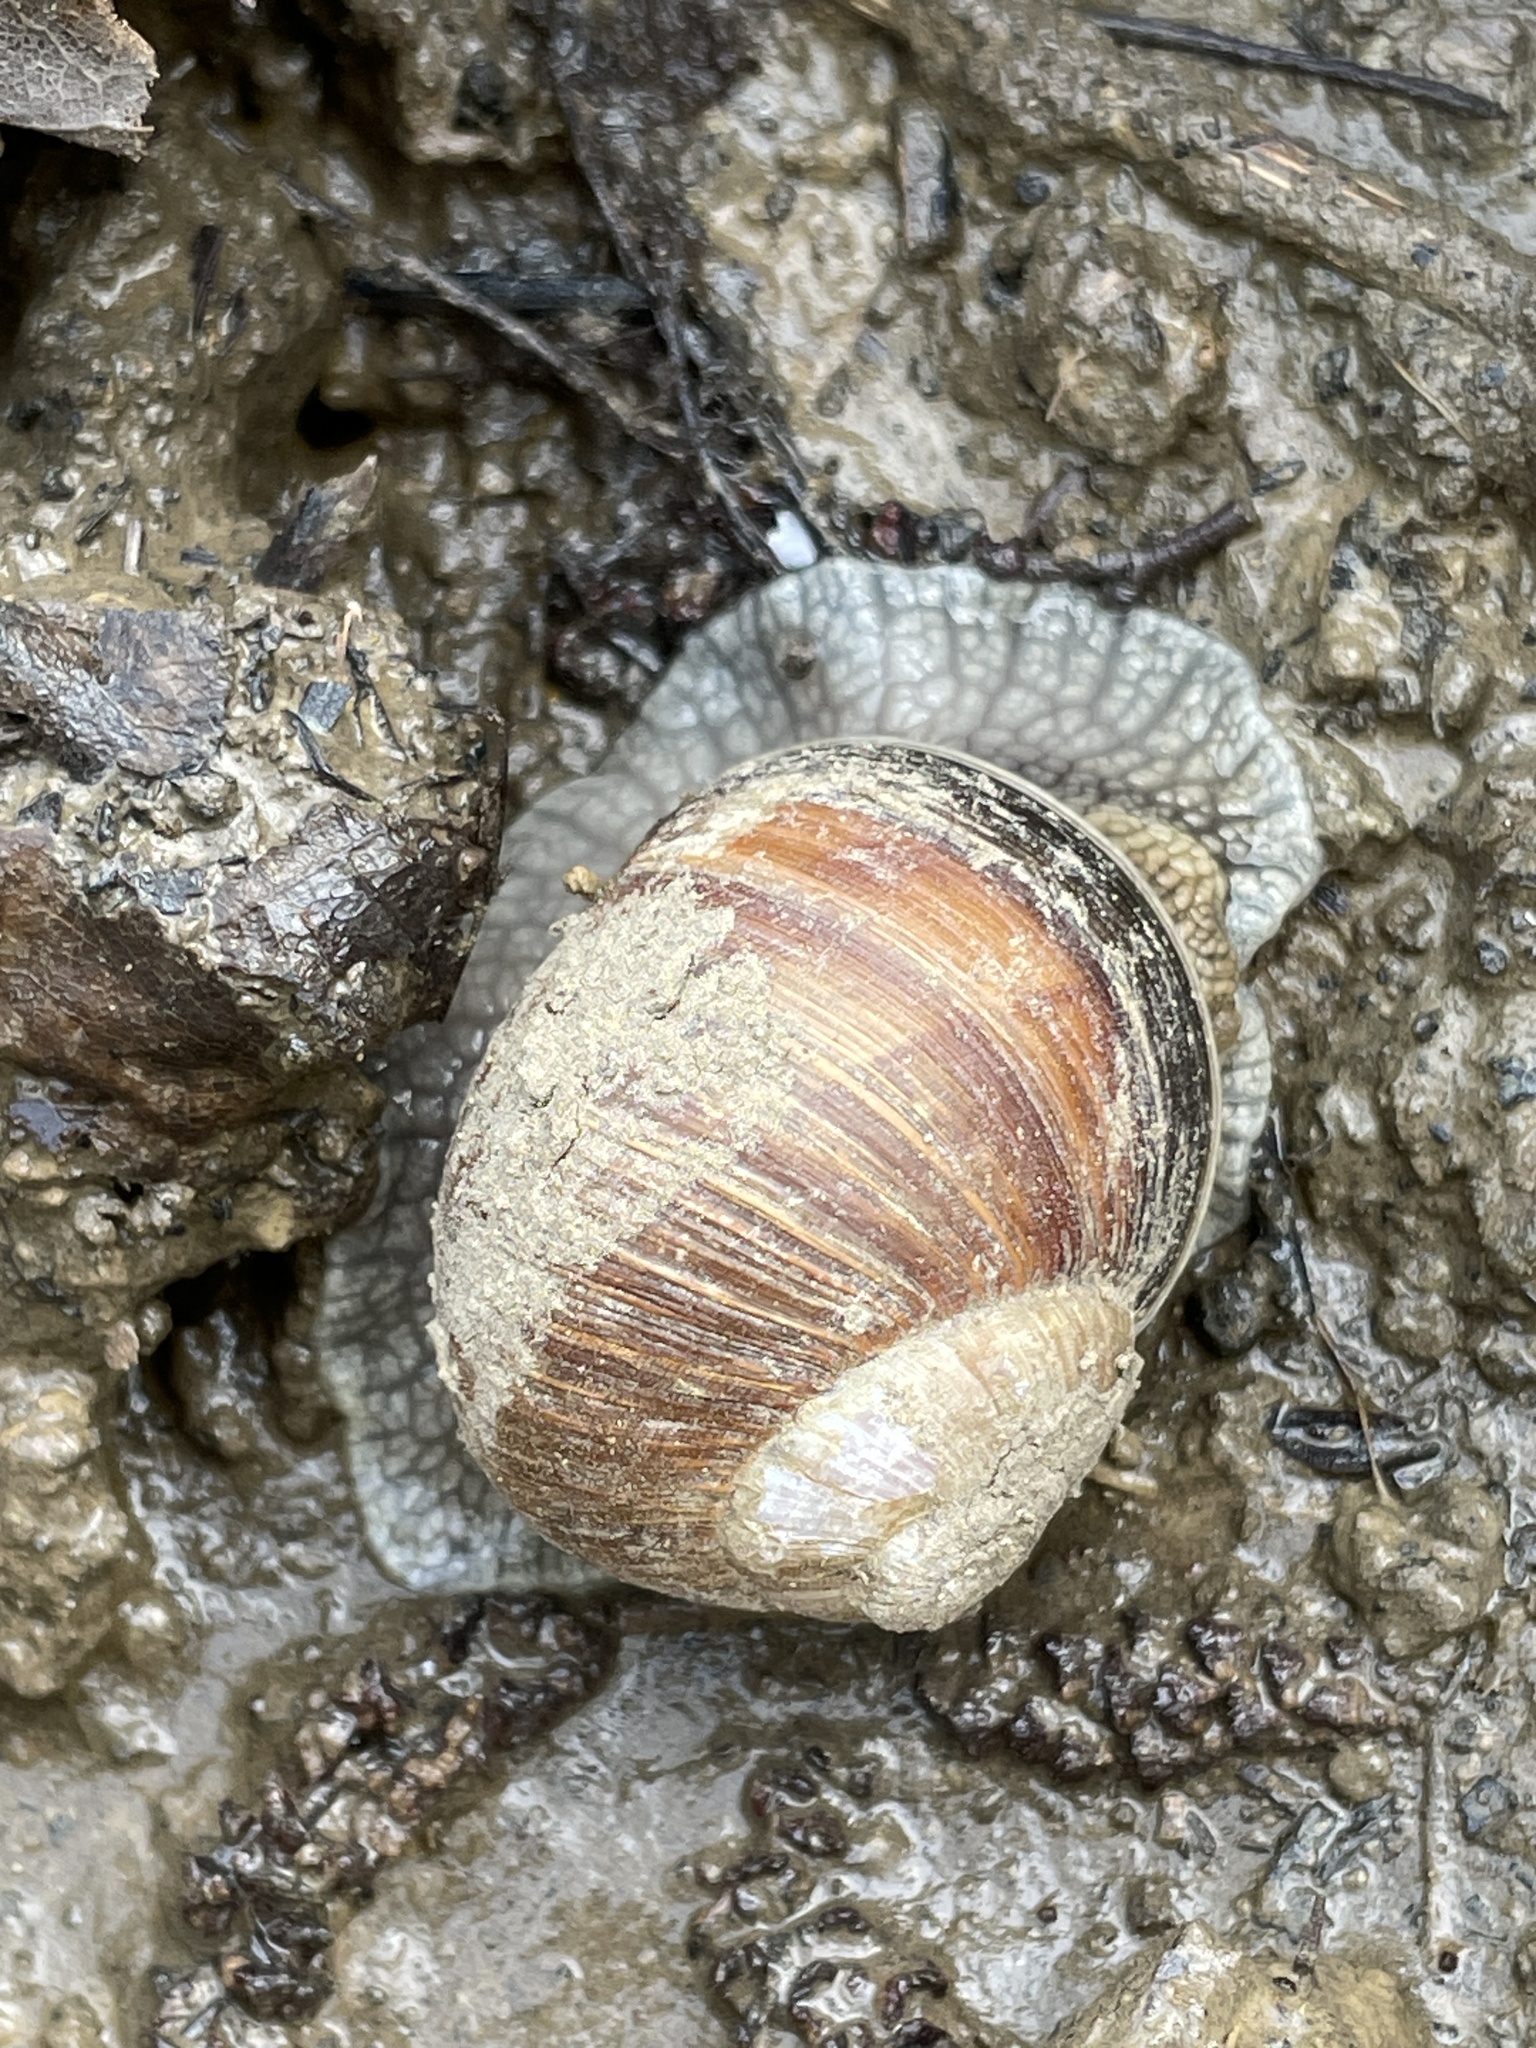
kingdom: Animalia
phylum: Mollusca
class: Gastropoda
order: Stylommatophora
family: Helicidae
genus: Helix
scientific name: Helix pomatia
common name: Roman snail
